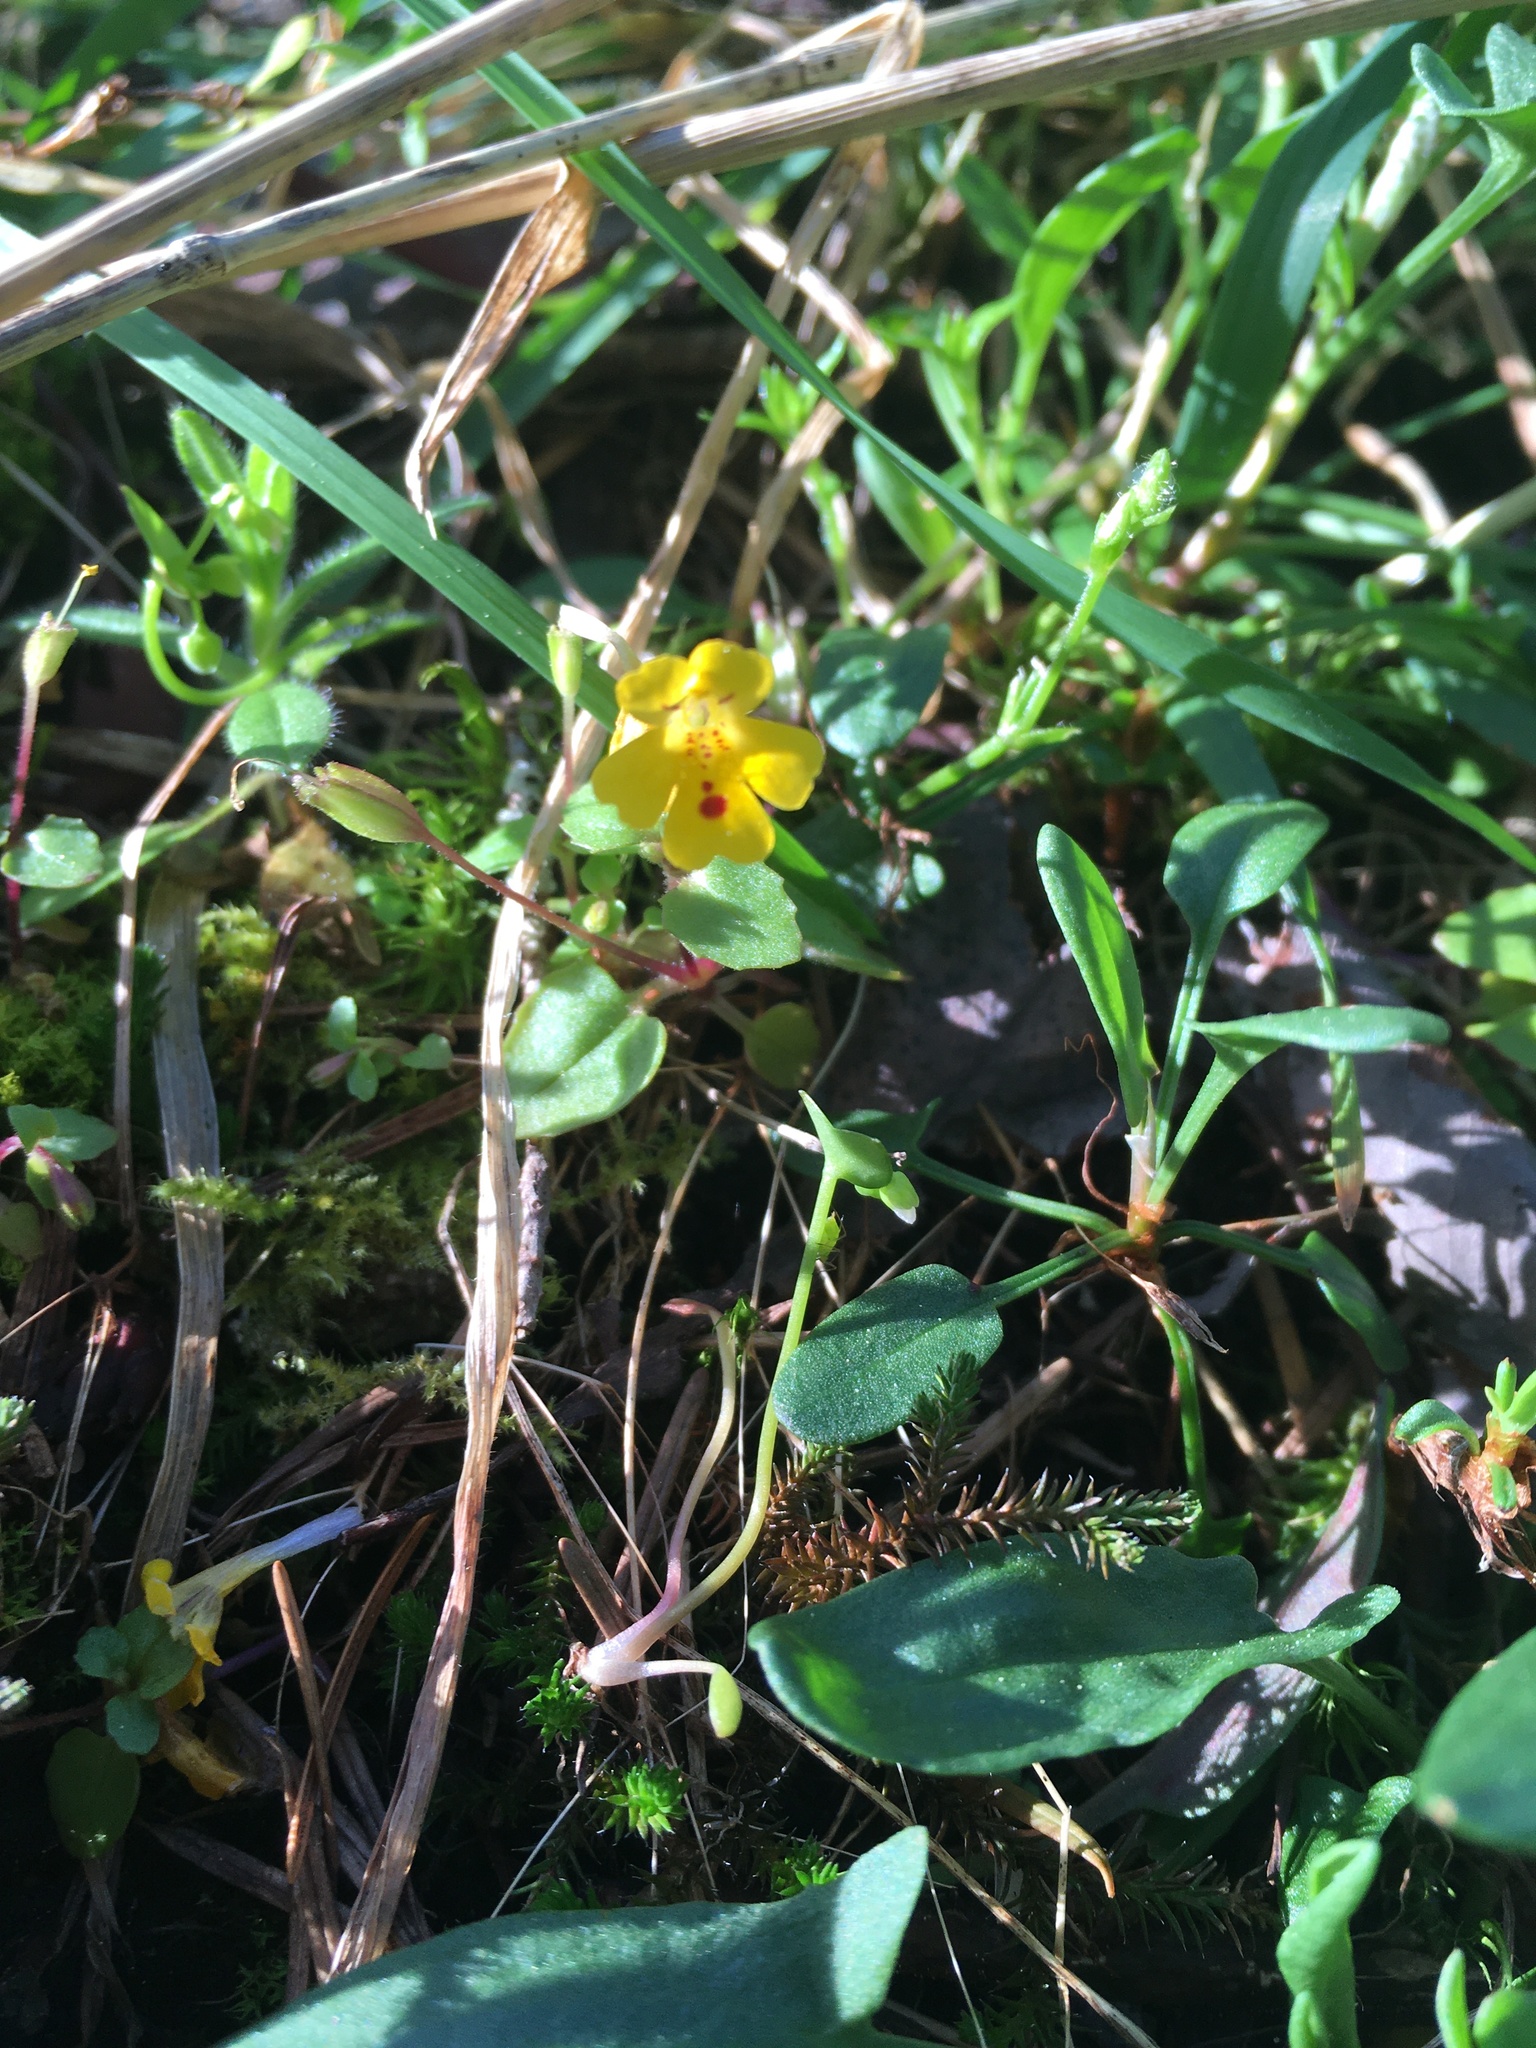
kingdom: Plantae
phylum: Tracheophyta
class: Magnoliopsida
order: Lamiales
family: Phrymaceae
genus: Erythranthe
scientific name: Erythranthe alsinoides
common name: Chickweed monkeyflower
